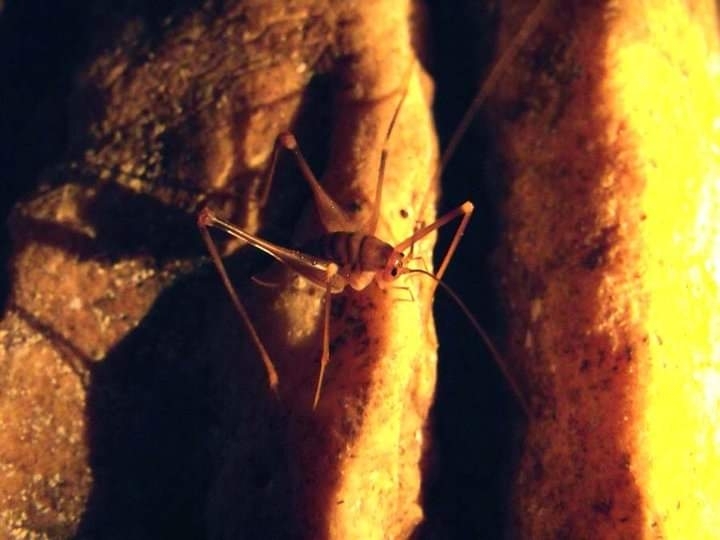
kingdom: Animalia
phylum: Arthropoda
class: Insecta
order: Orthoptera
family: Rhaphidophoridae
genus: Dolichopoda
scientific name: Dolichopoda geniculata
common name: Bended cave-cricket
